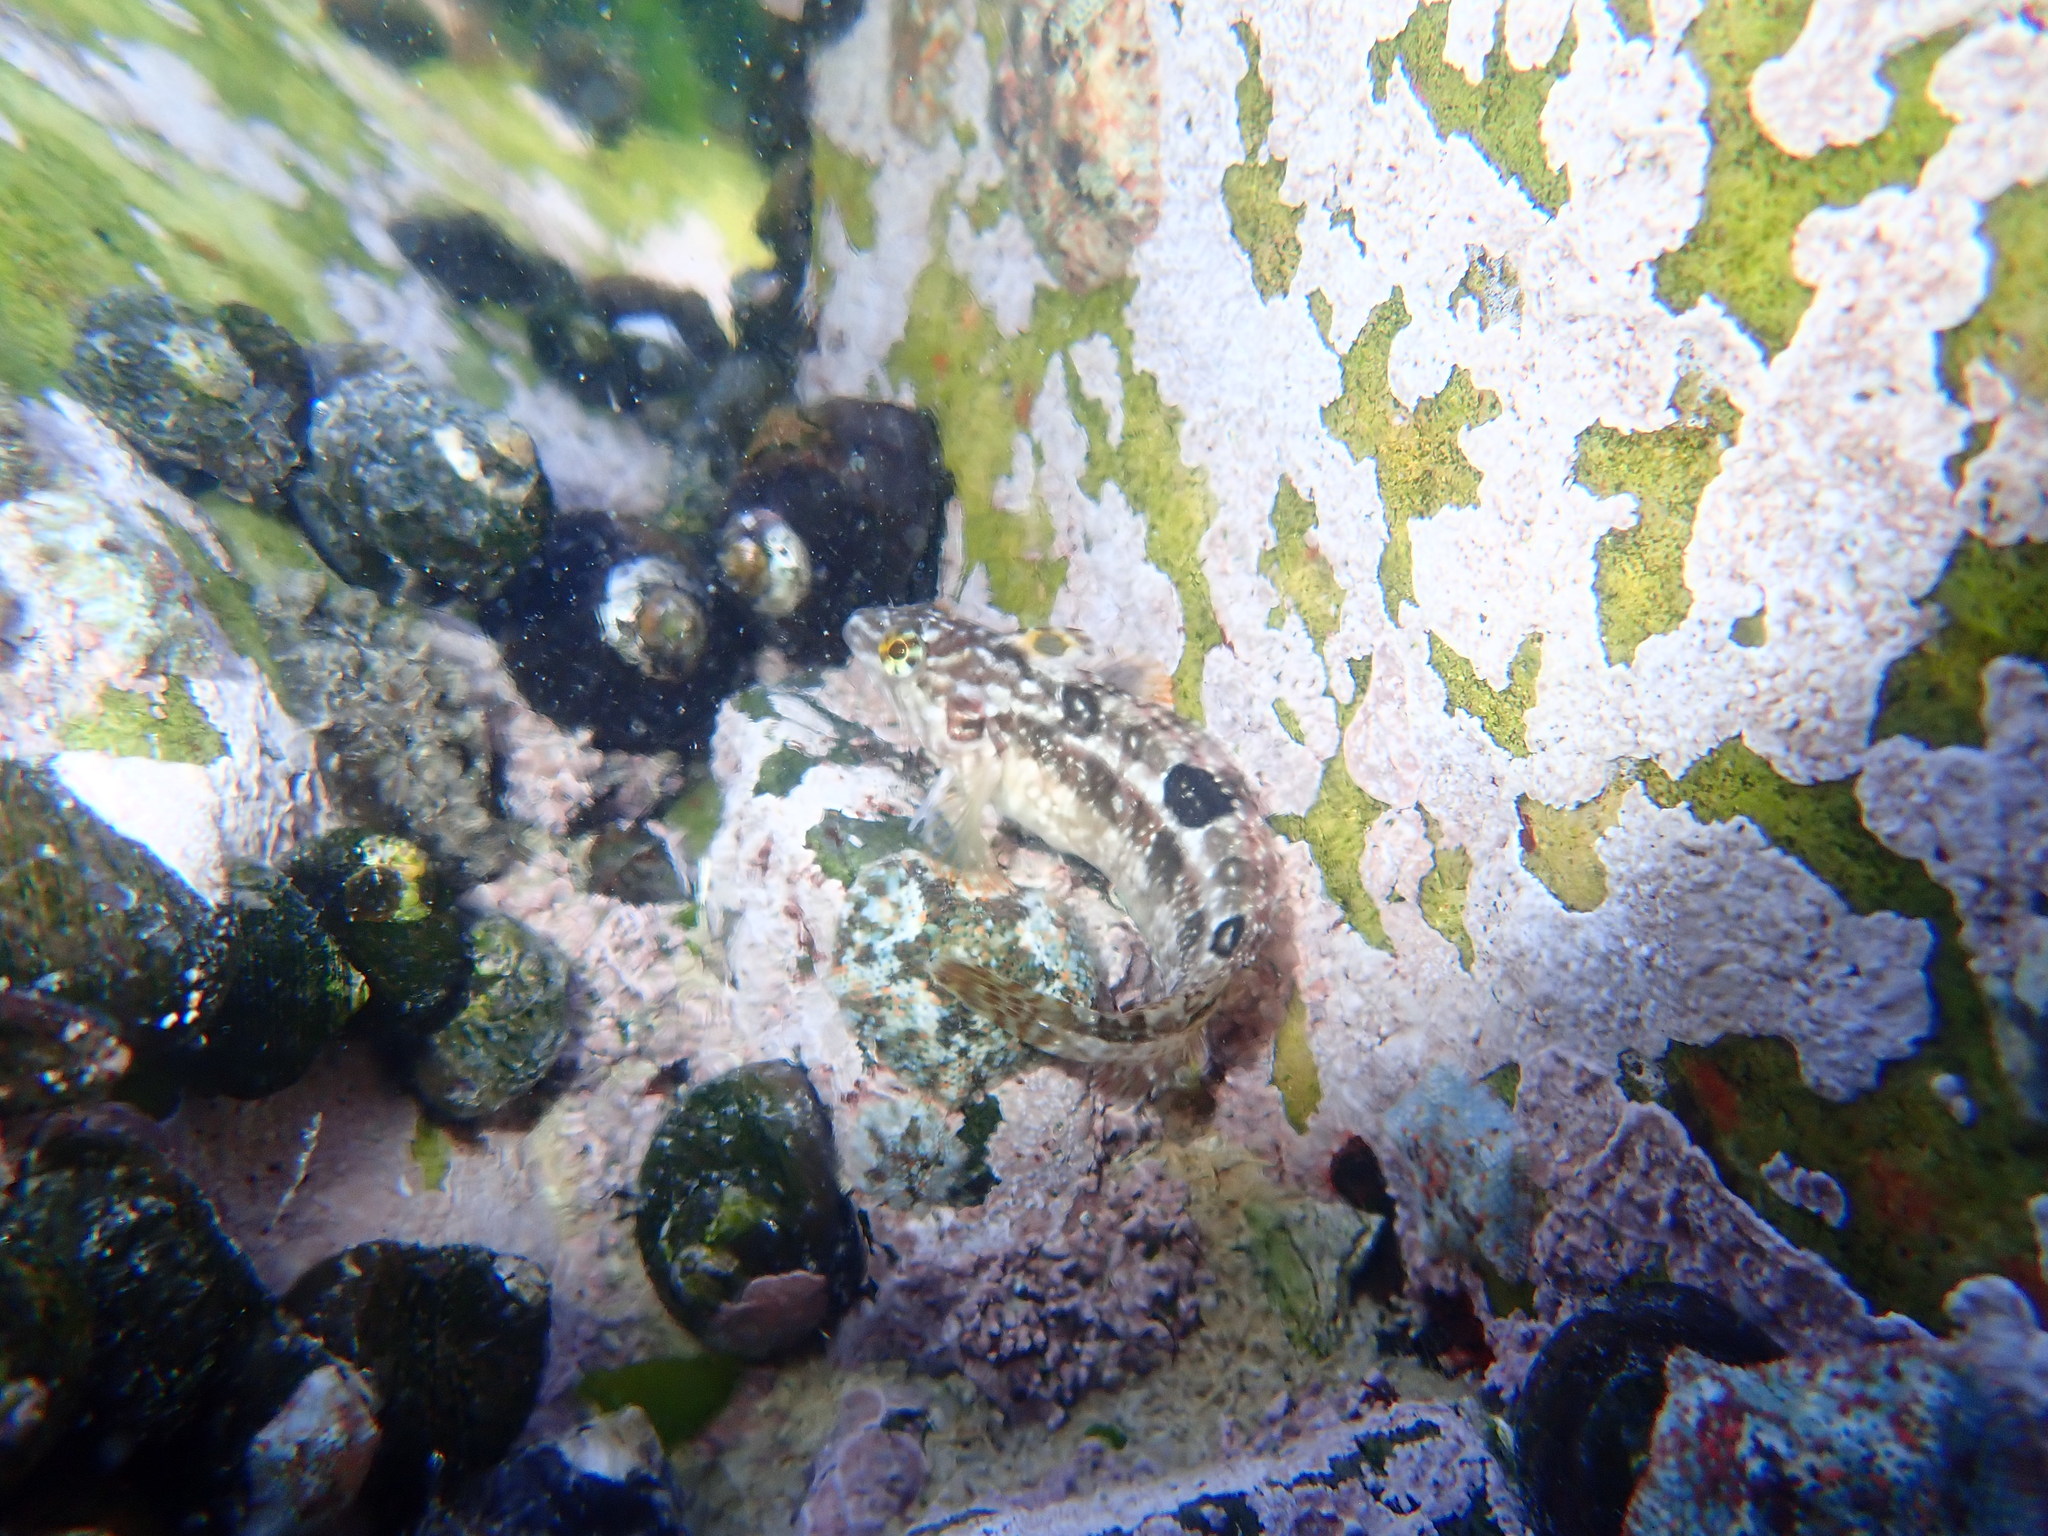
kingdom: Animalia
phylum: Chordata
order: Perciformes
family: Clinidae
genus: Clinus
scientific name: Clinus superciliosus
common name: Super klipfish
